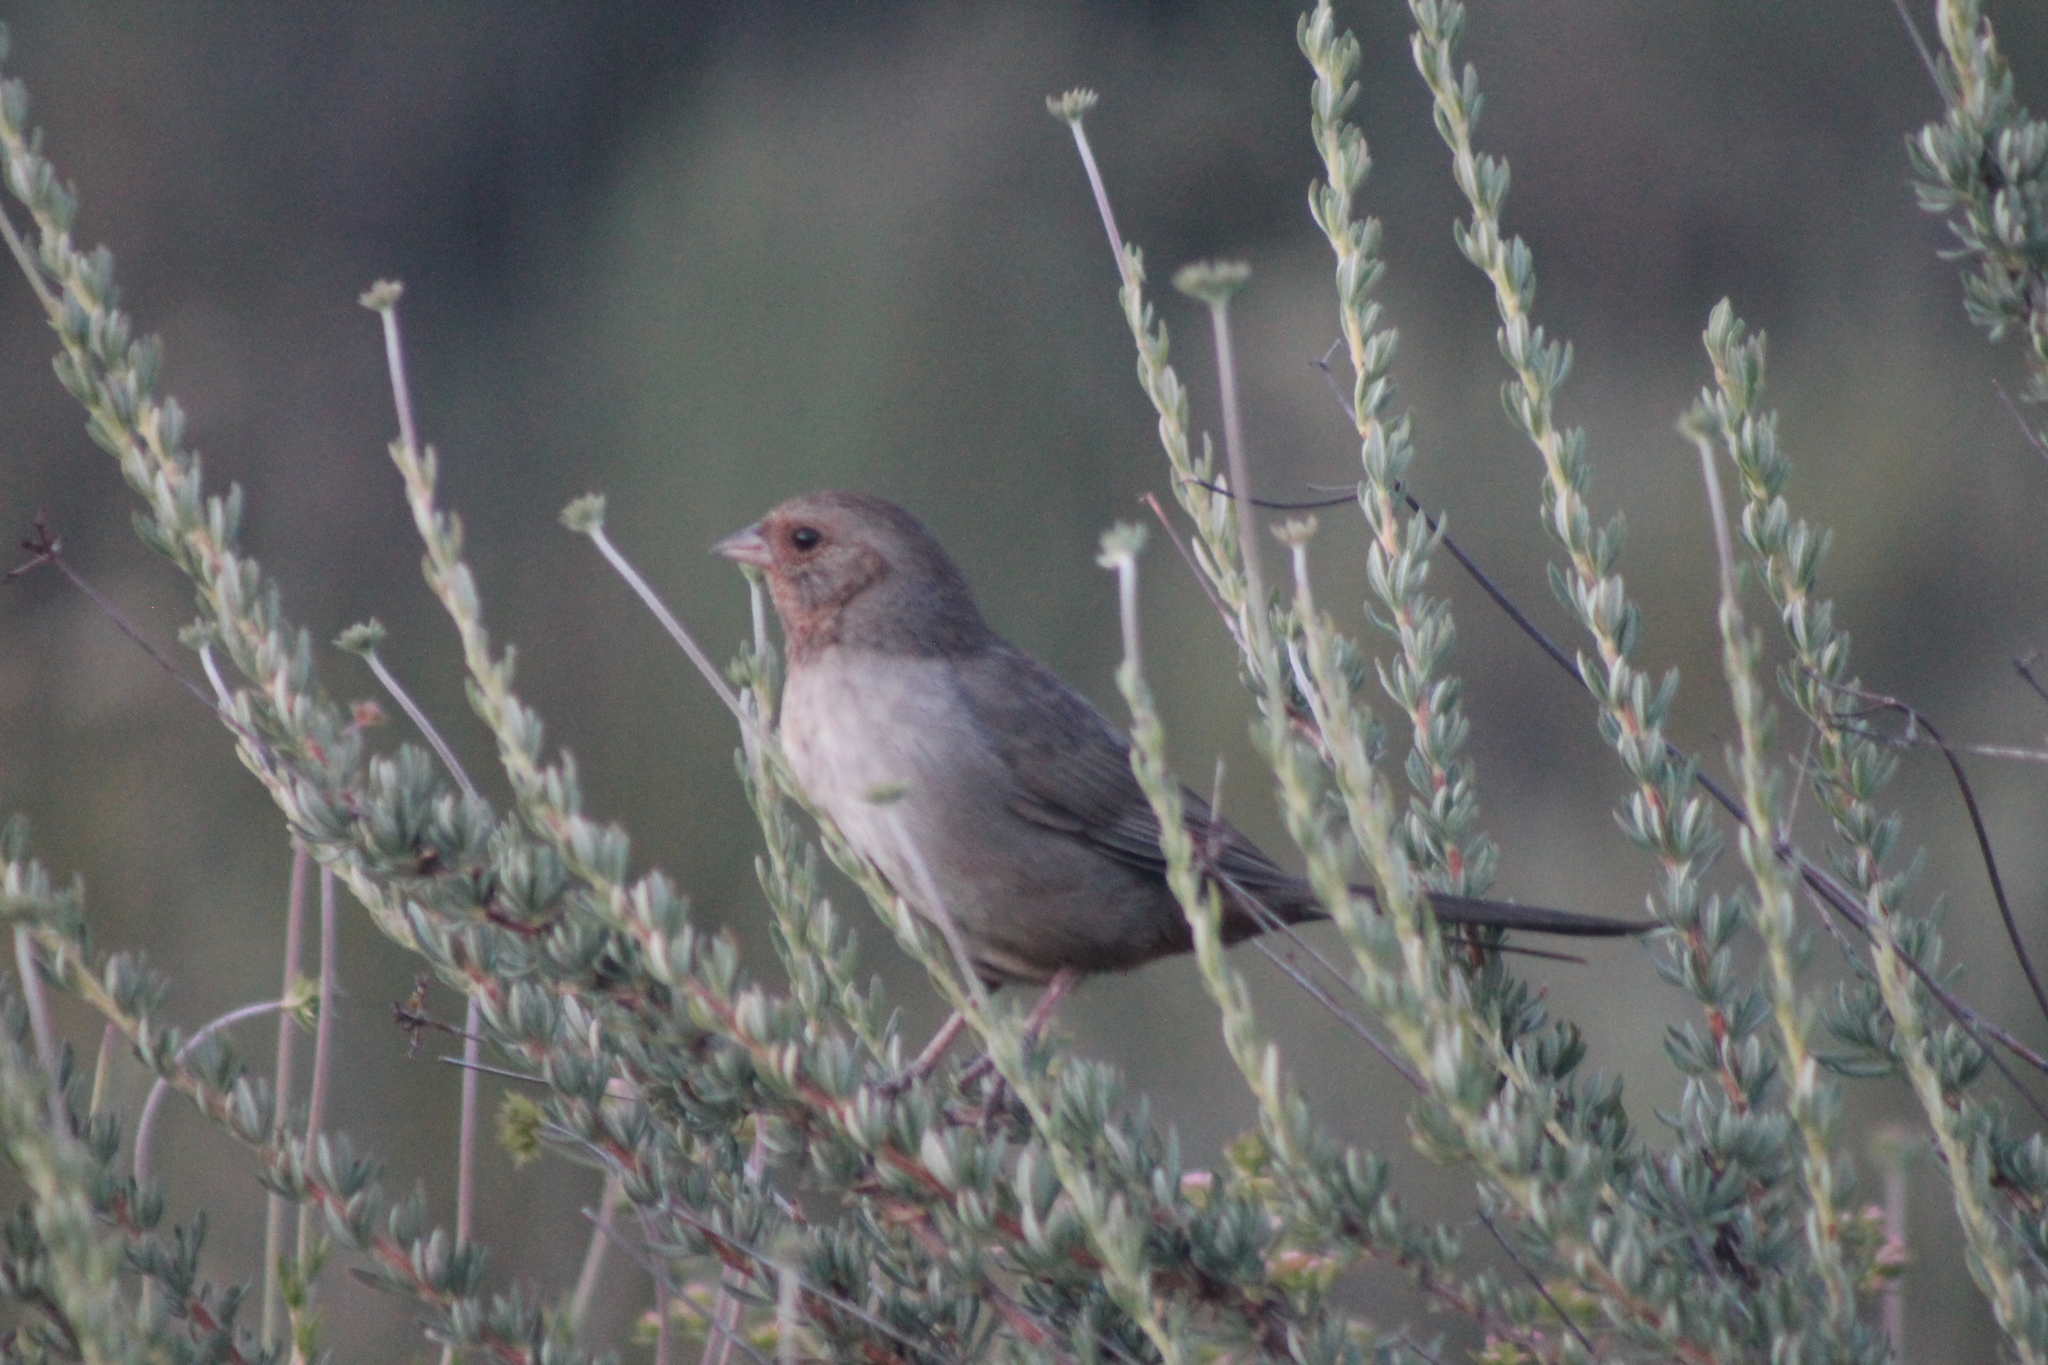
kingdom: Animalia
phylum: Chordata
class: Aves
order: Passeriformes
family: Passerellidae
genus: Melozone
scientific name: Melozone crissalis
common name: California towhee
